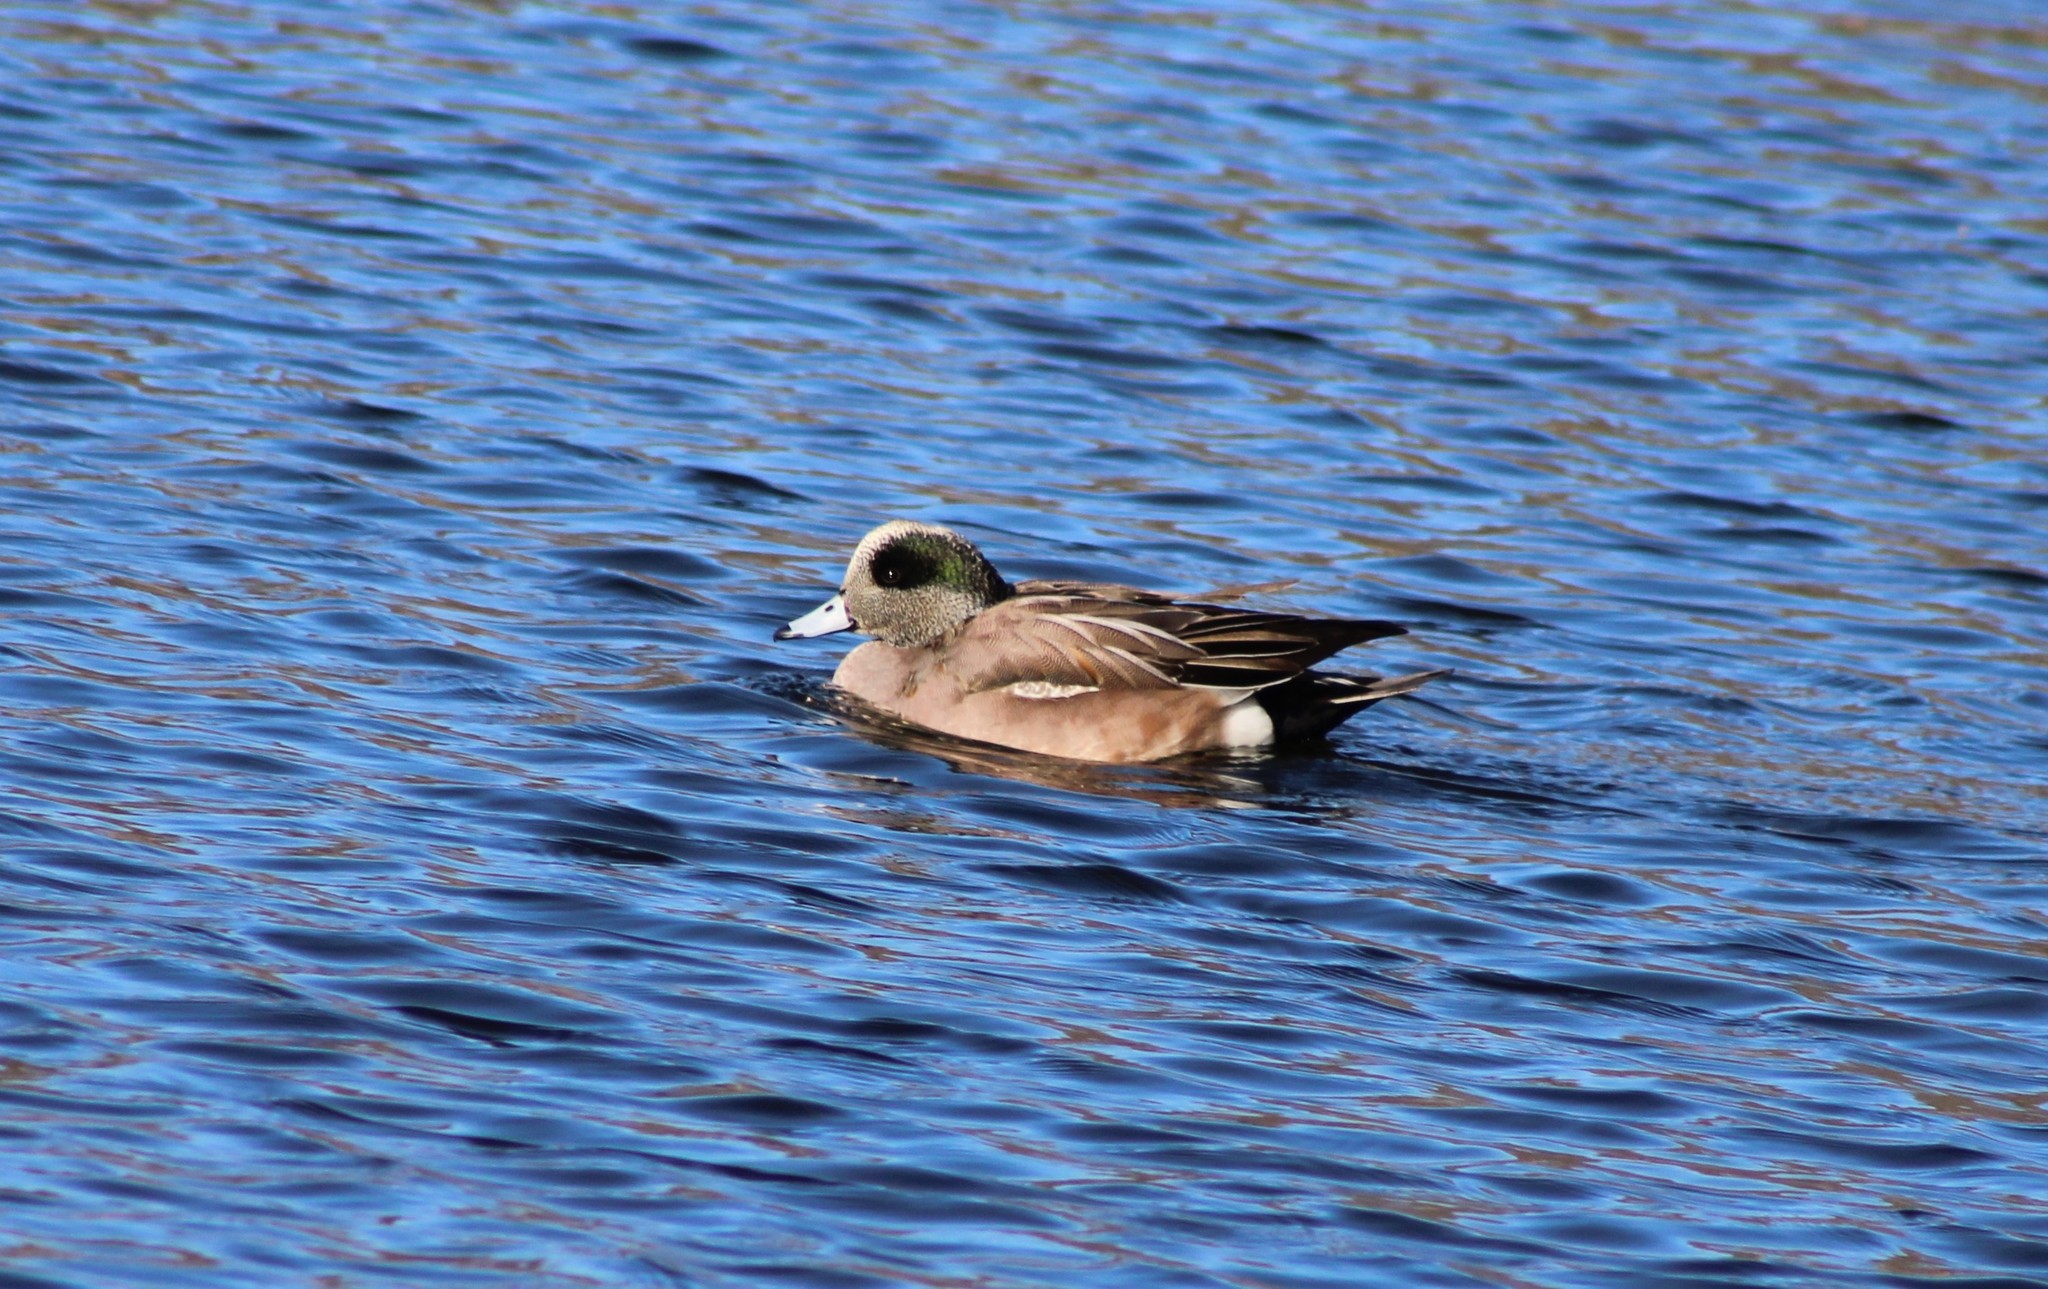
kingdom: Animalia
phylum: Chordata
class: Aves
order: Anseriformes
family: Anatidae
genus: Mareca
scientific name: Mareca americana
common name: American wigeon
